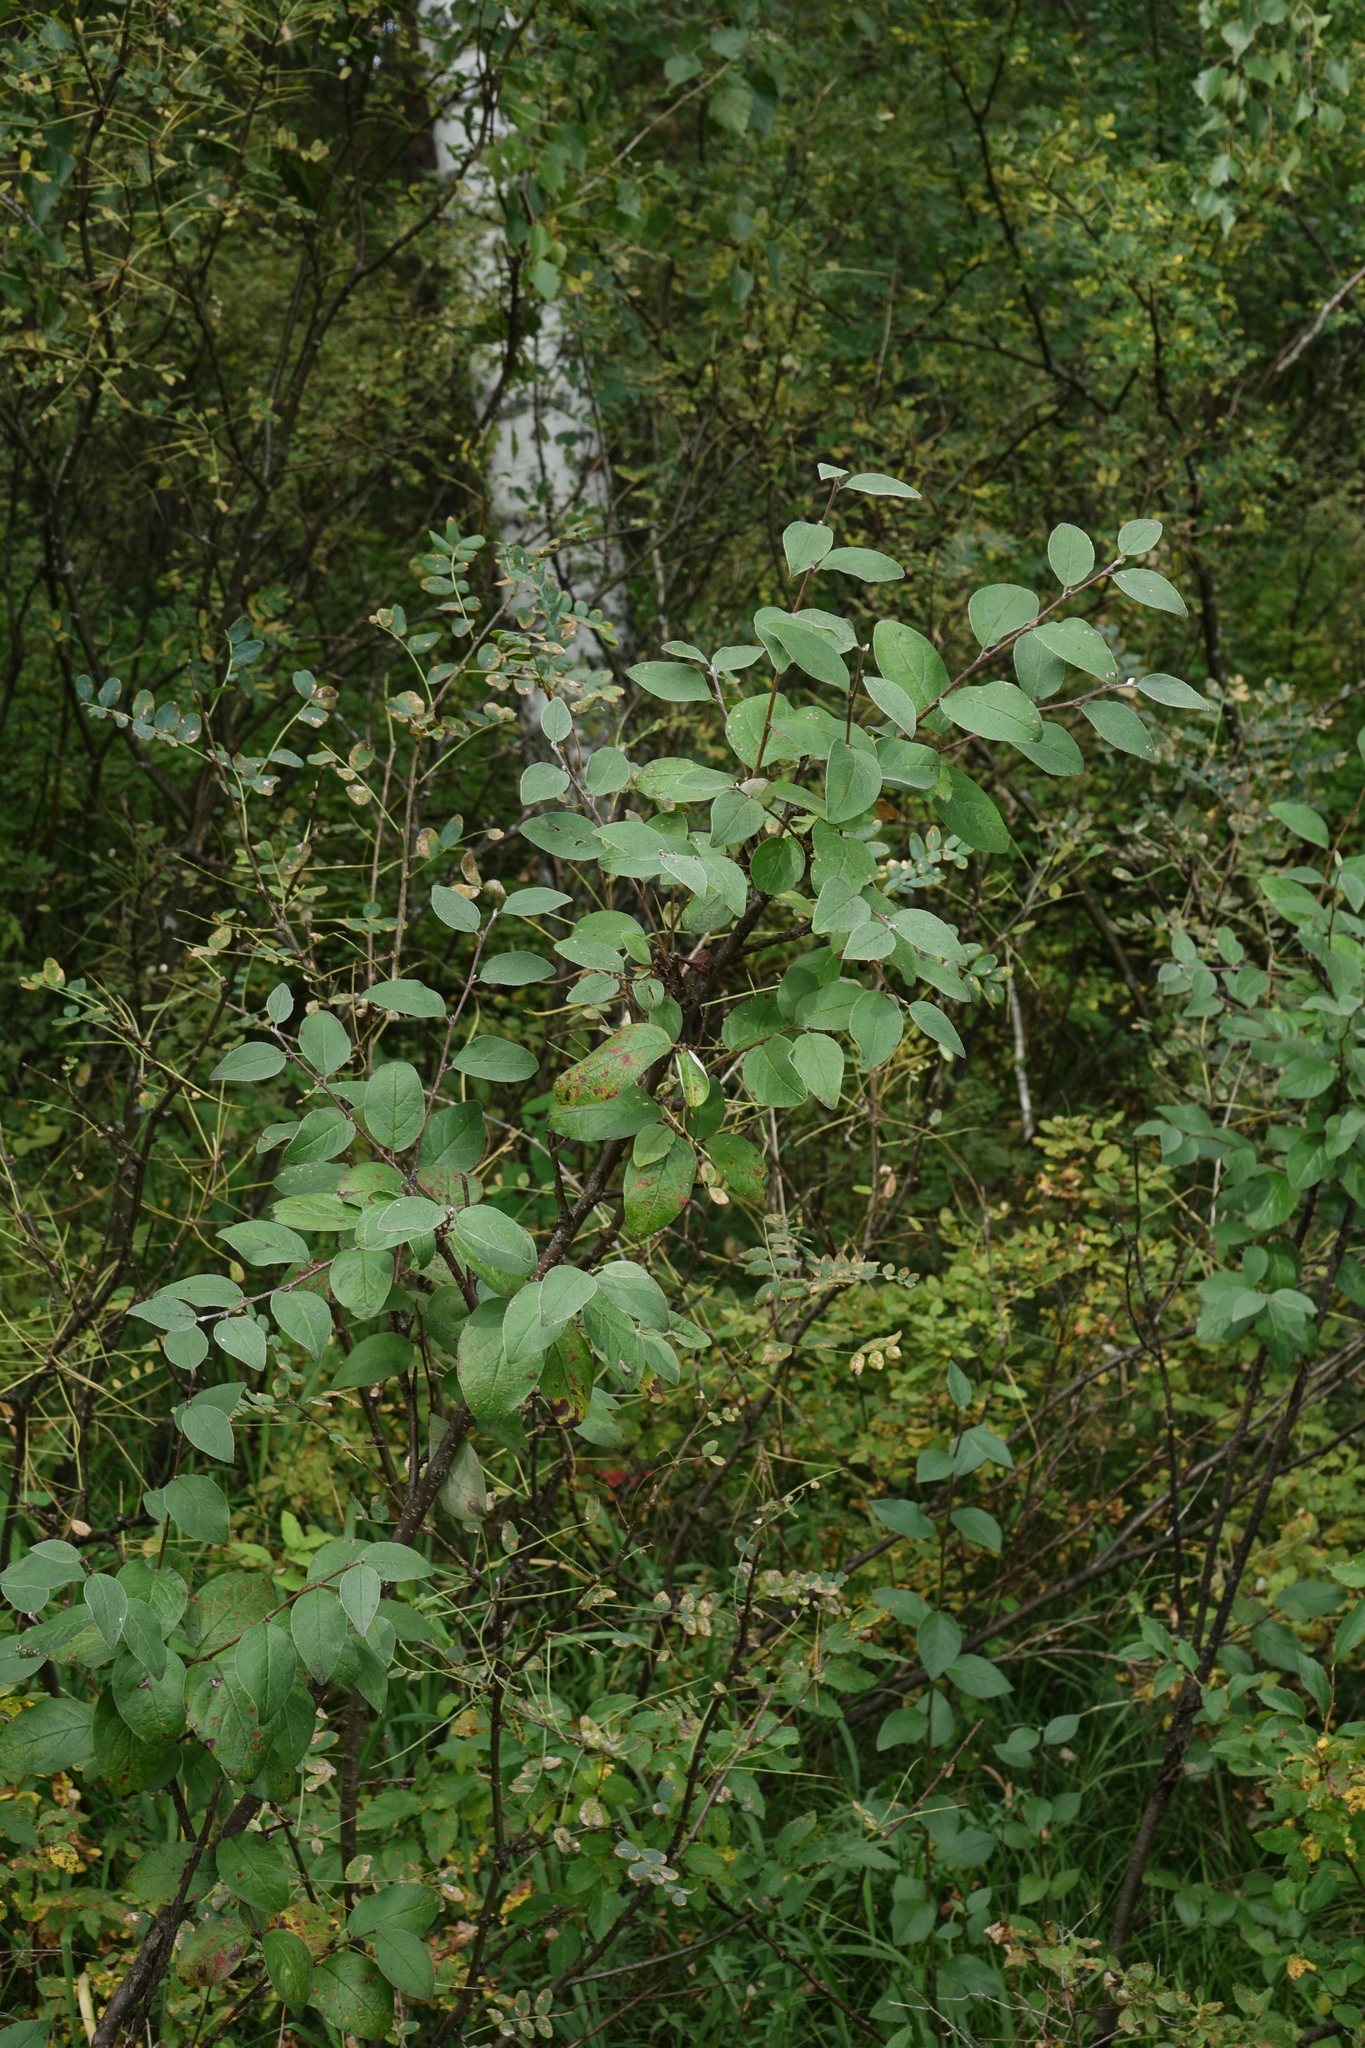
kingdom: Plantae
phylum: Tracheophyta
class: Magnoliopsida
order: Rosales
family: Rosaceae
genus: Cotoneaster
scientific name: Cotoneaster melanocarpus
